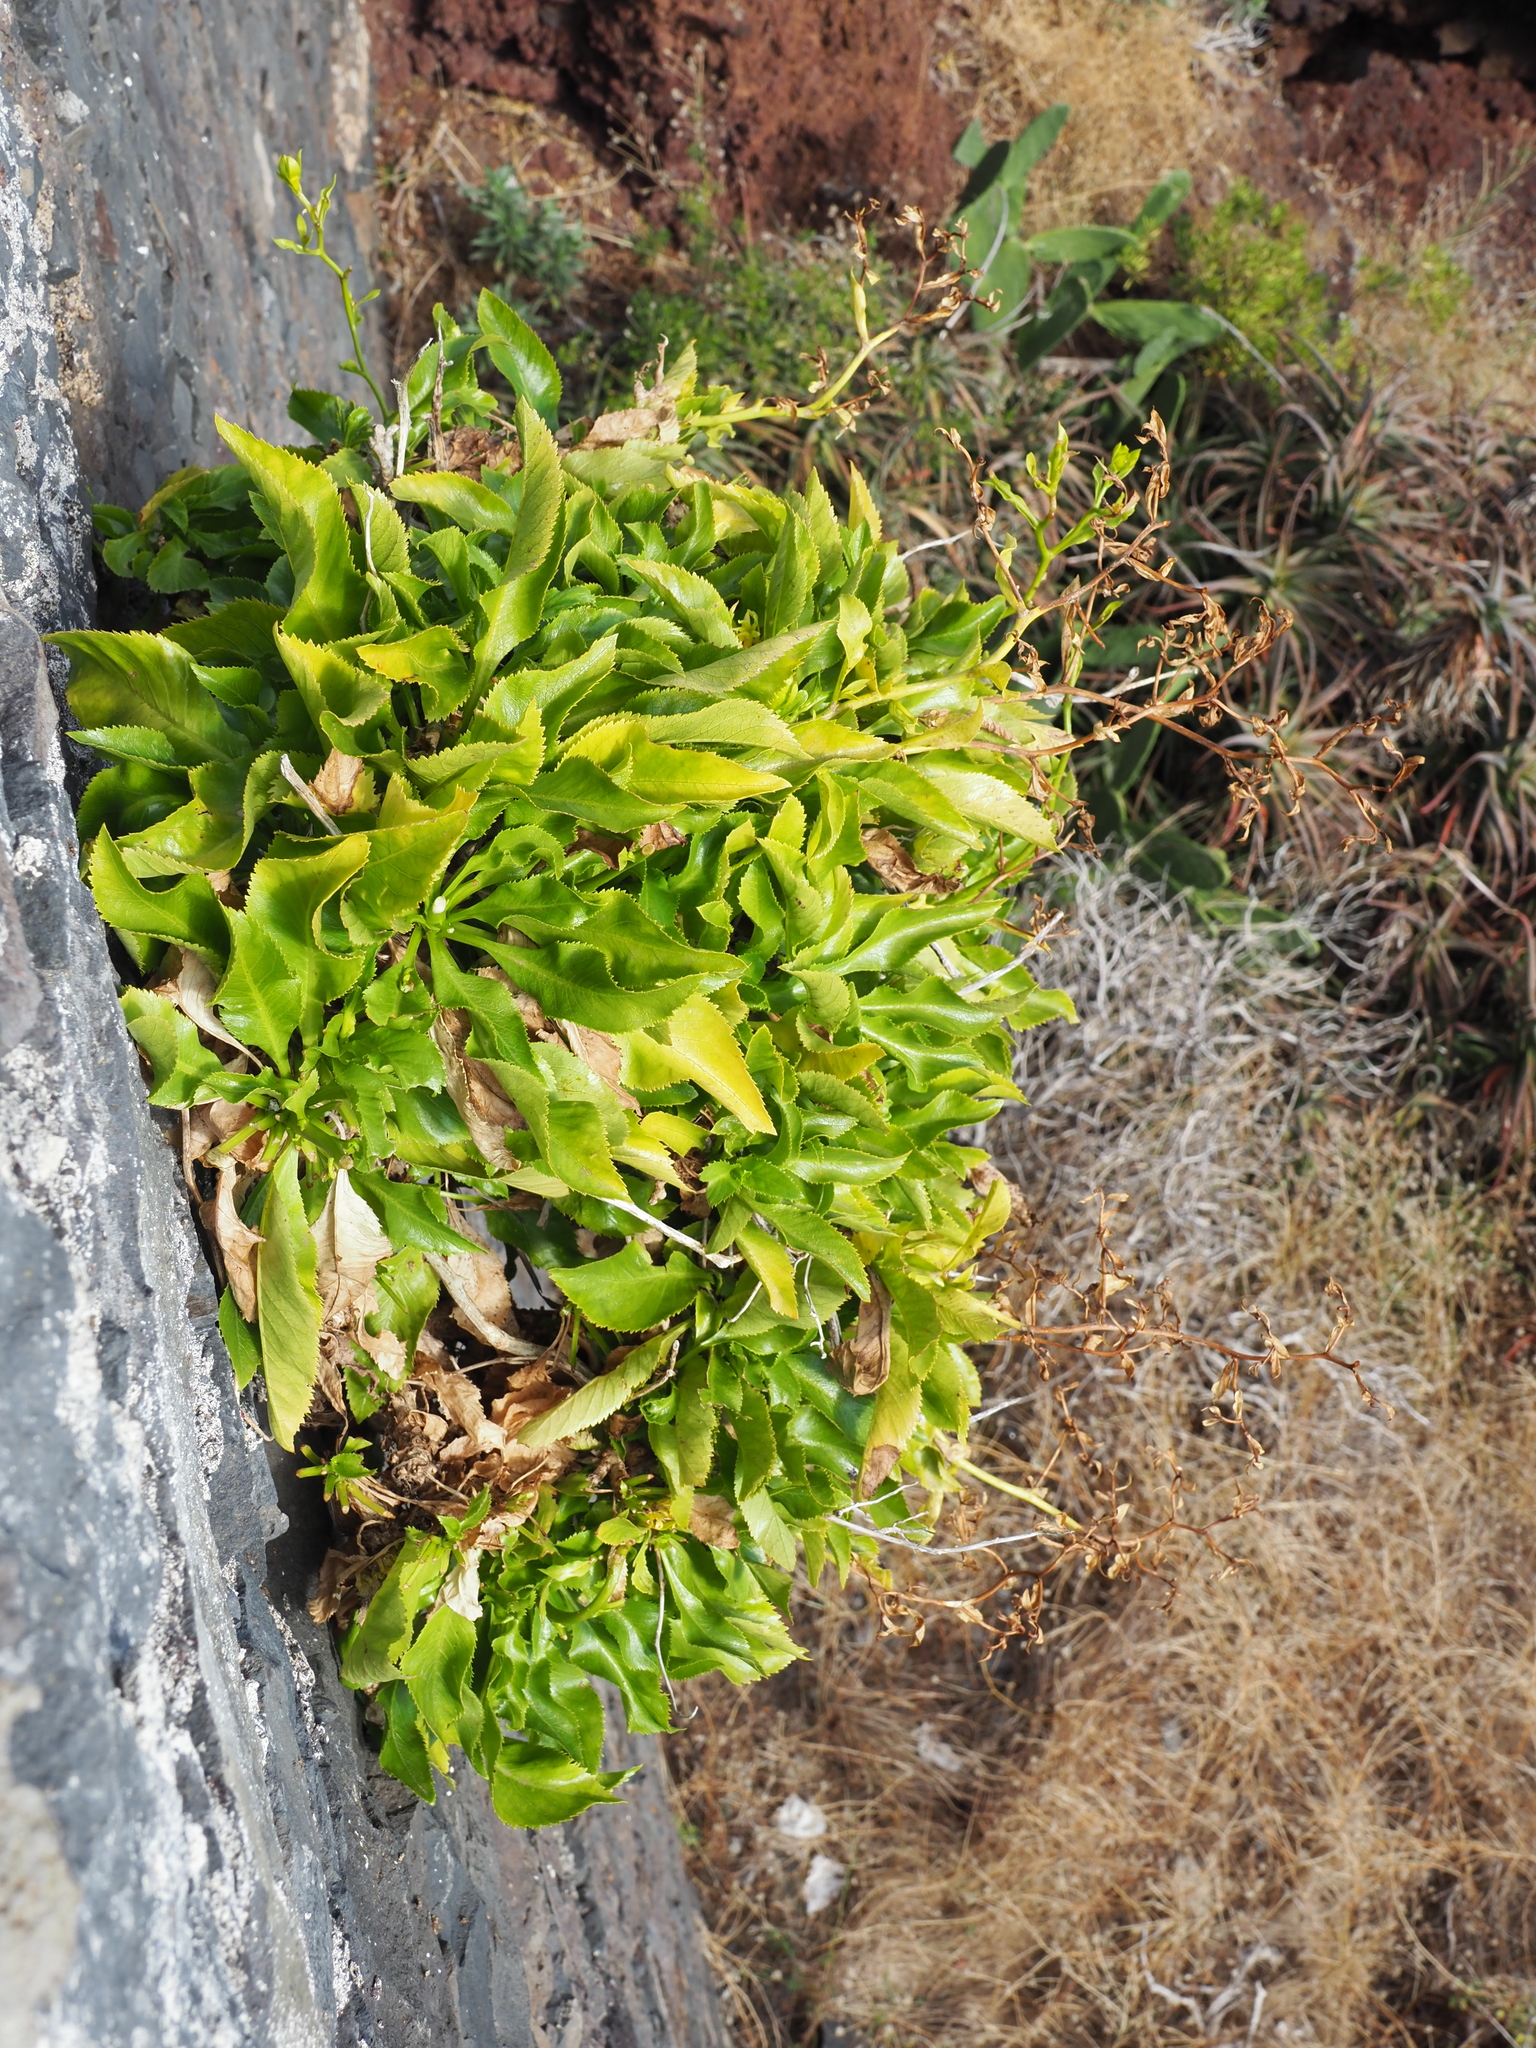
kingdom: Plantae
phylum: Tracheophyta
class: Magnoliopsida
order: Asterales
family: Campanulaceae
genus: Musschia
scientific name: Musschia aurea
